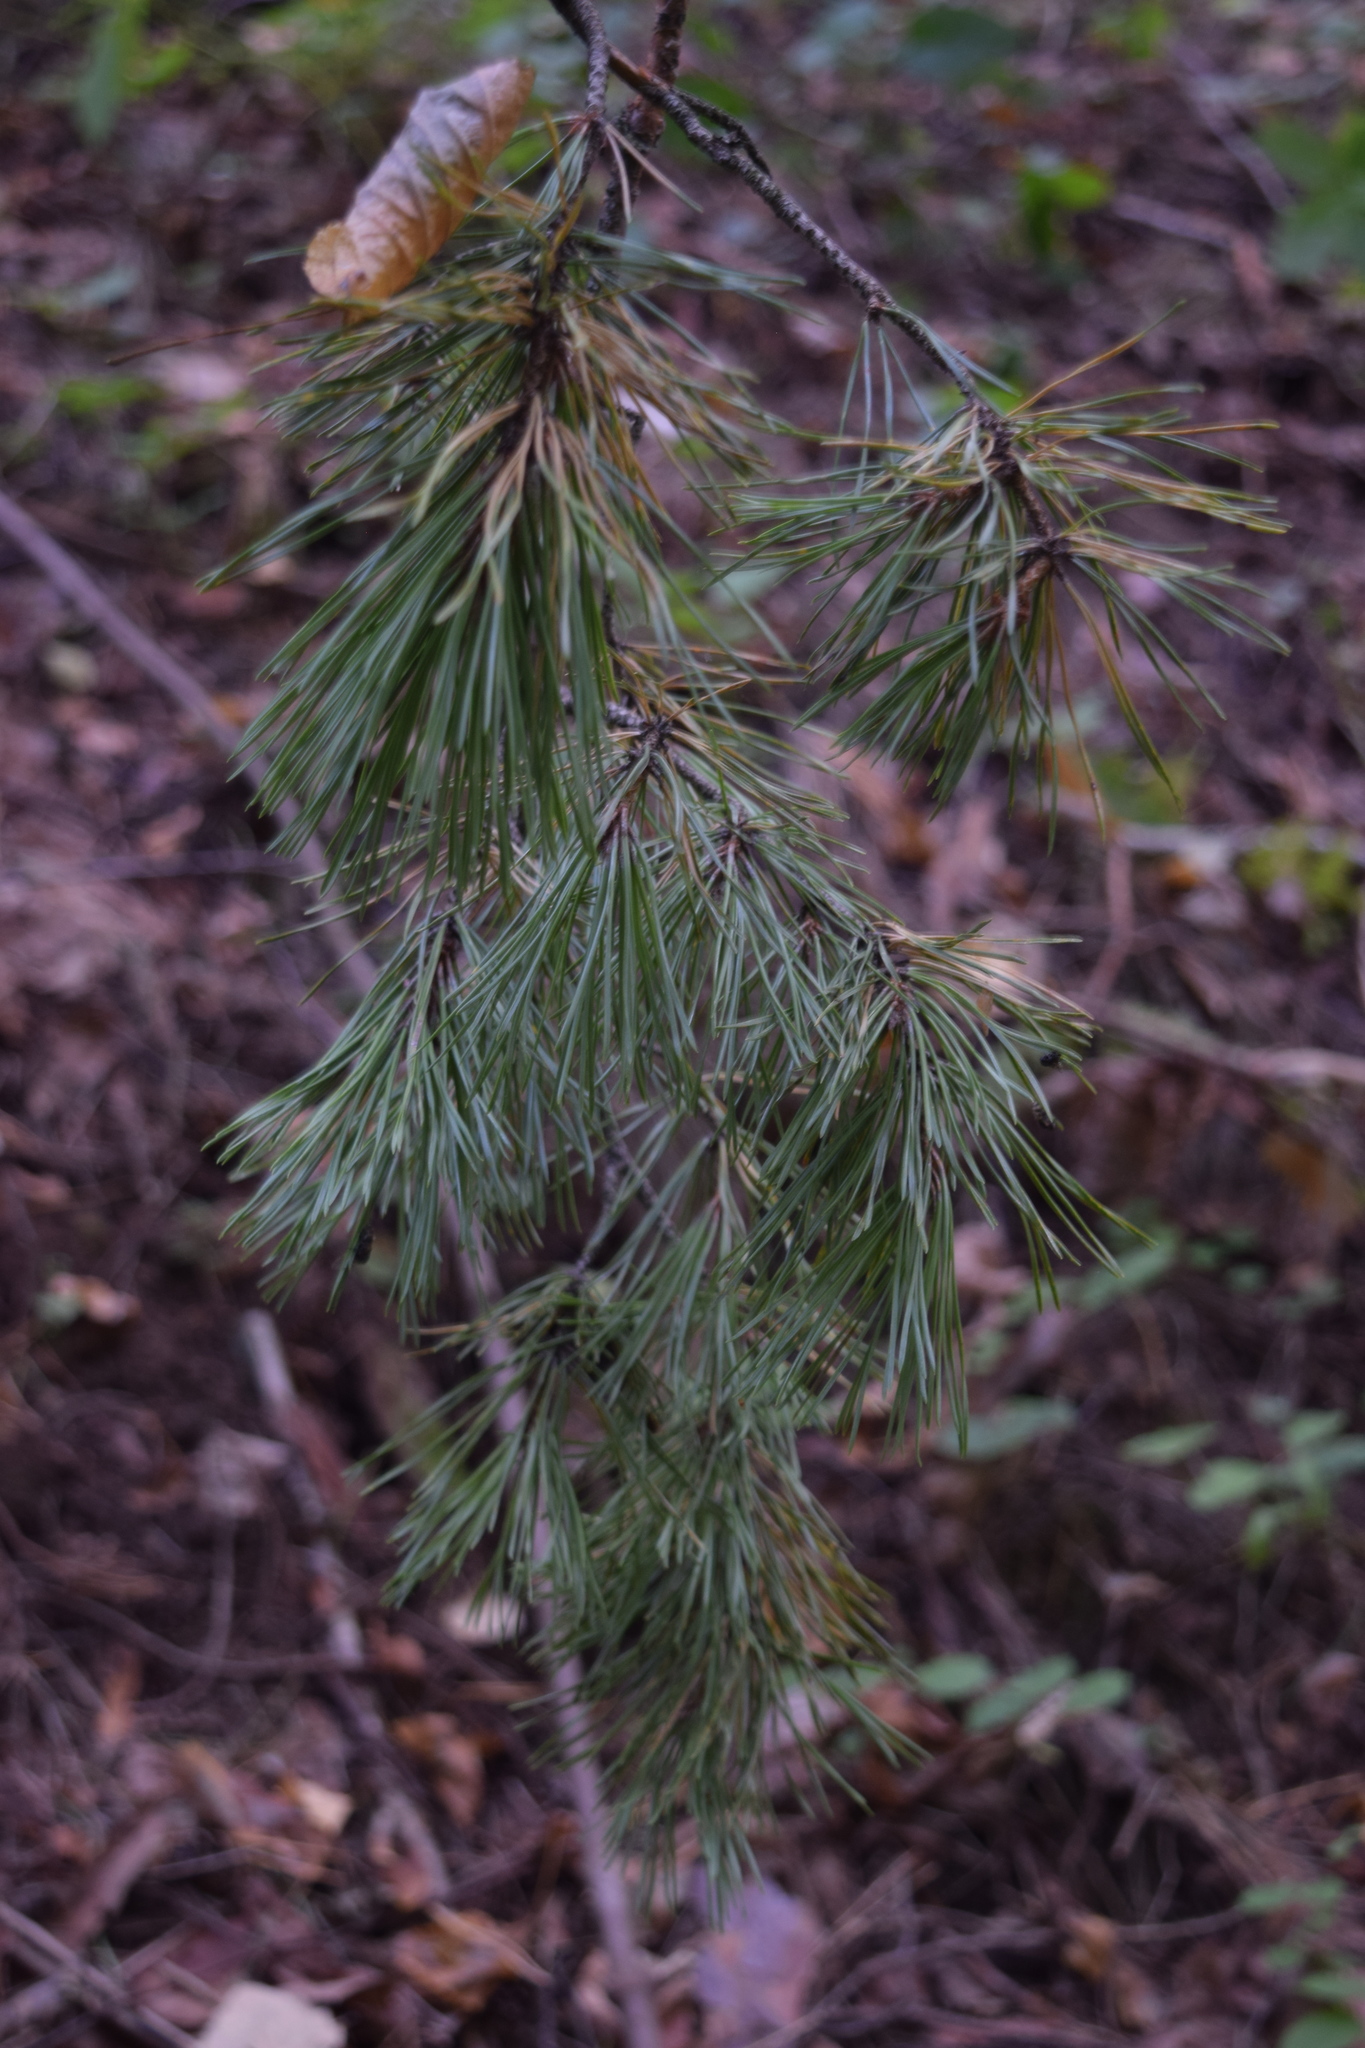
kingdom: Plantae
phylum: Tracheophyta
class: Pinopsida
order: Pinales
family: Pinaceae
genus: Pinus
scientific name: Pinus sylvestris
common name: Scots pine
